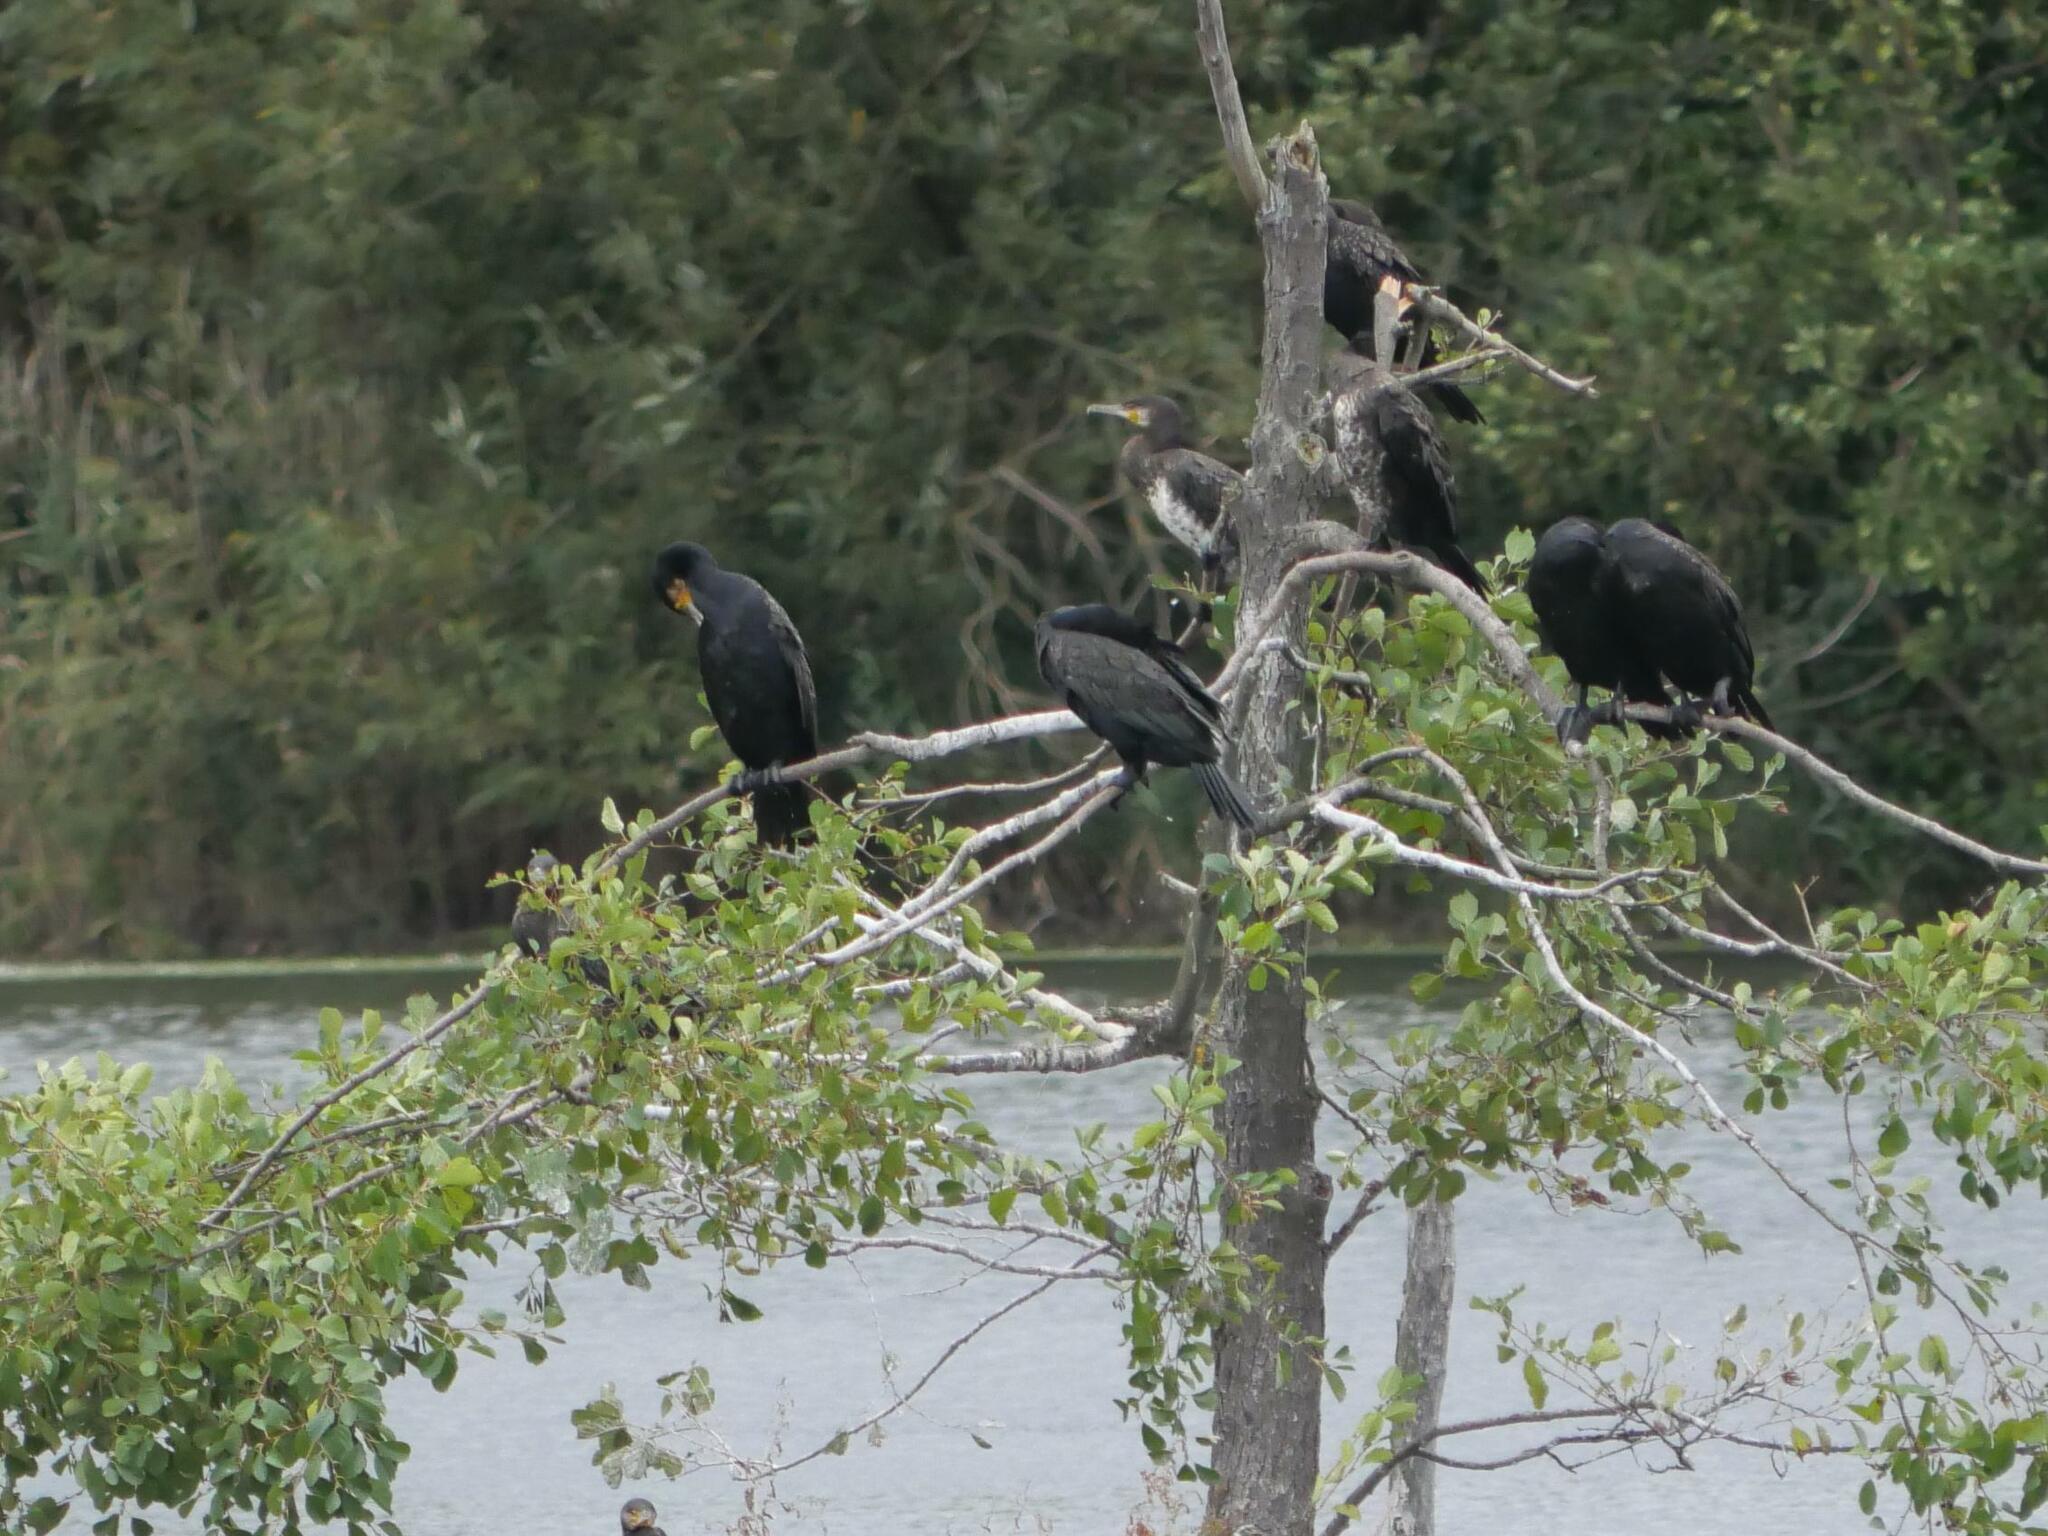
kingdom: Animalia
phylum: Chordata
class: Aves
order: Suliformes
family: Phalacrocoracidae
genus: Phalacrocorax
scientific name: Phalacrocorax carbo
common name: Great cormorant
